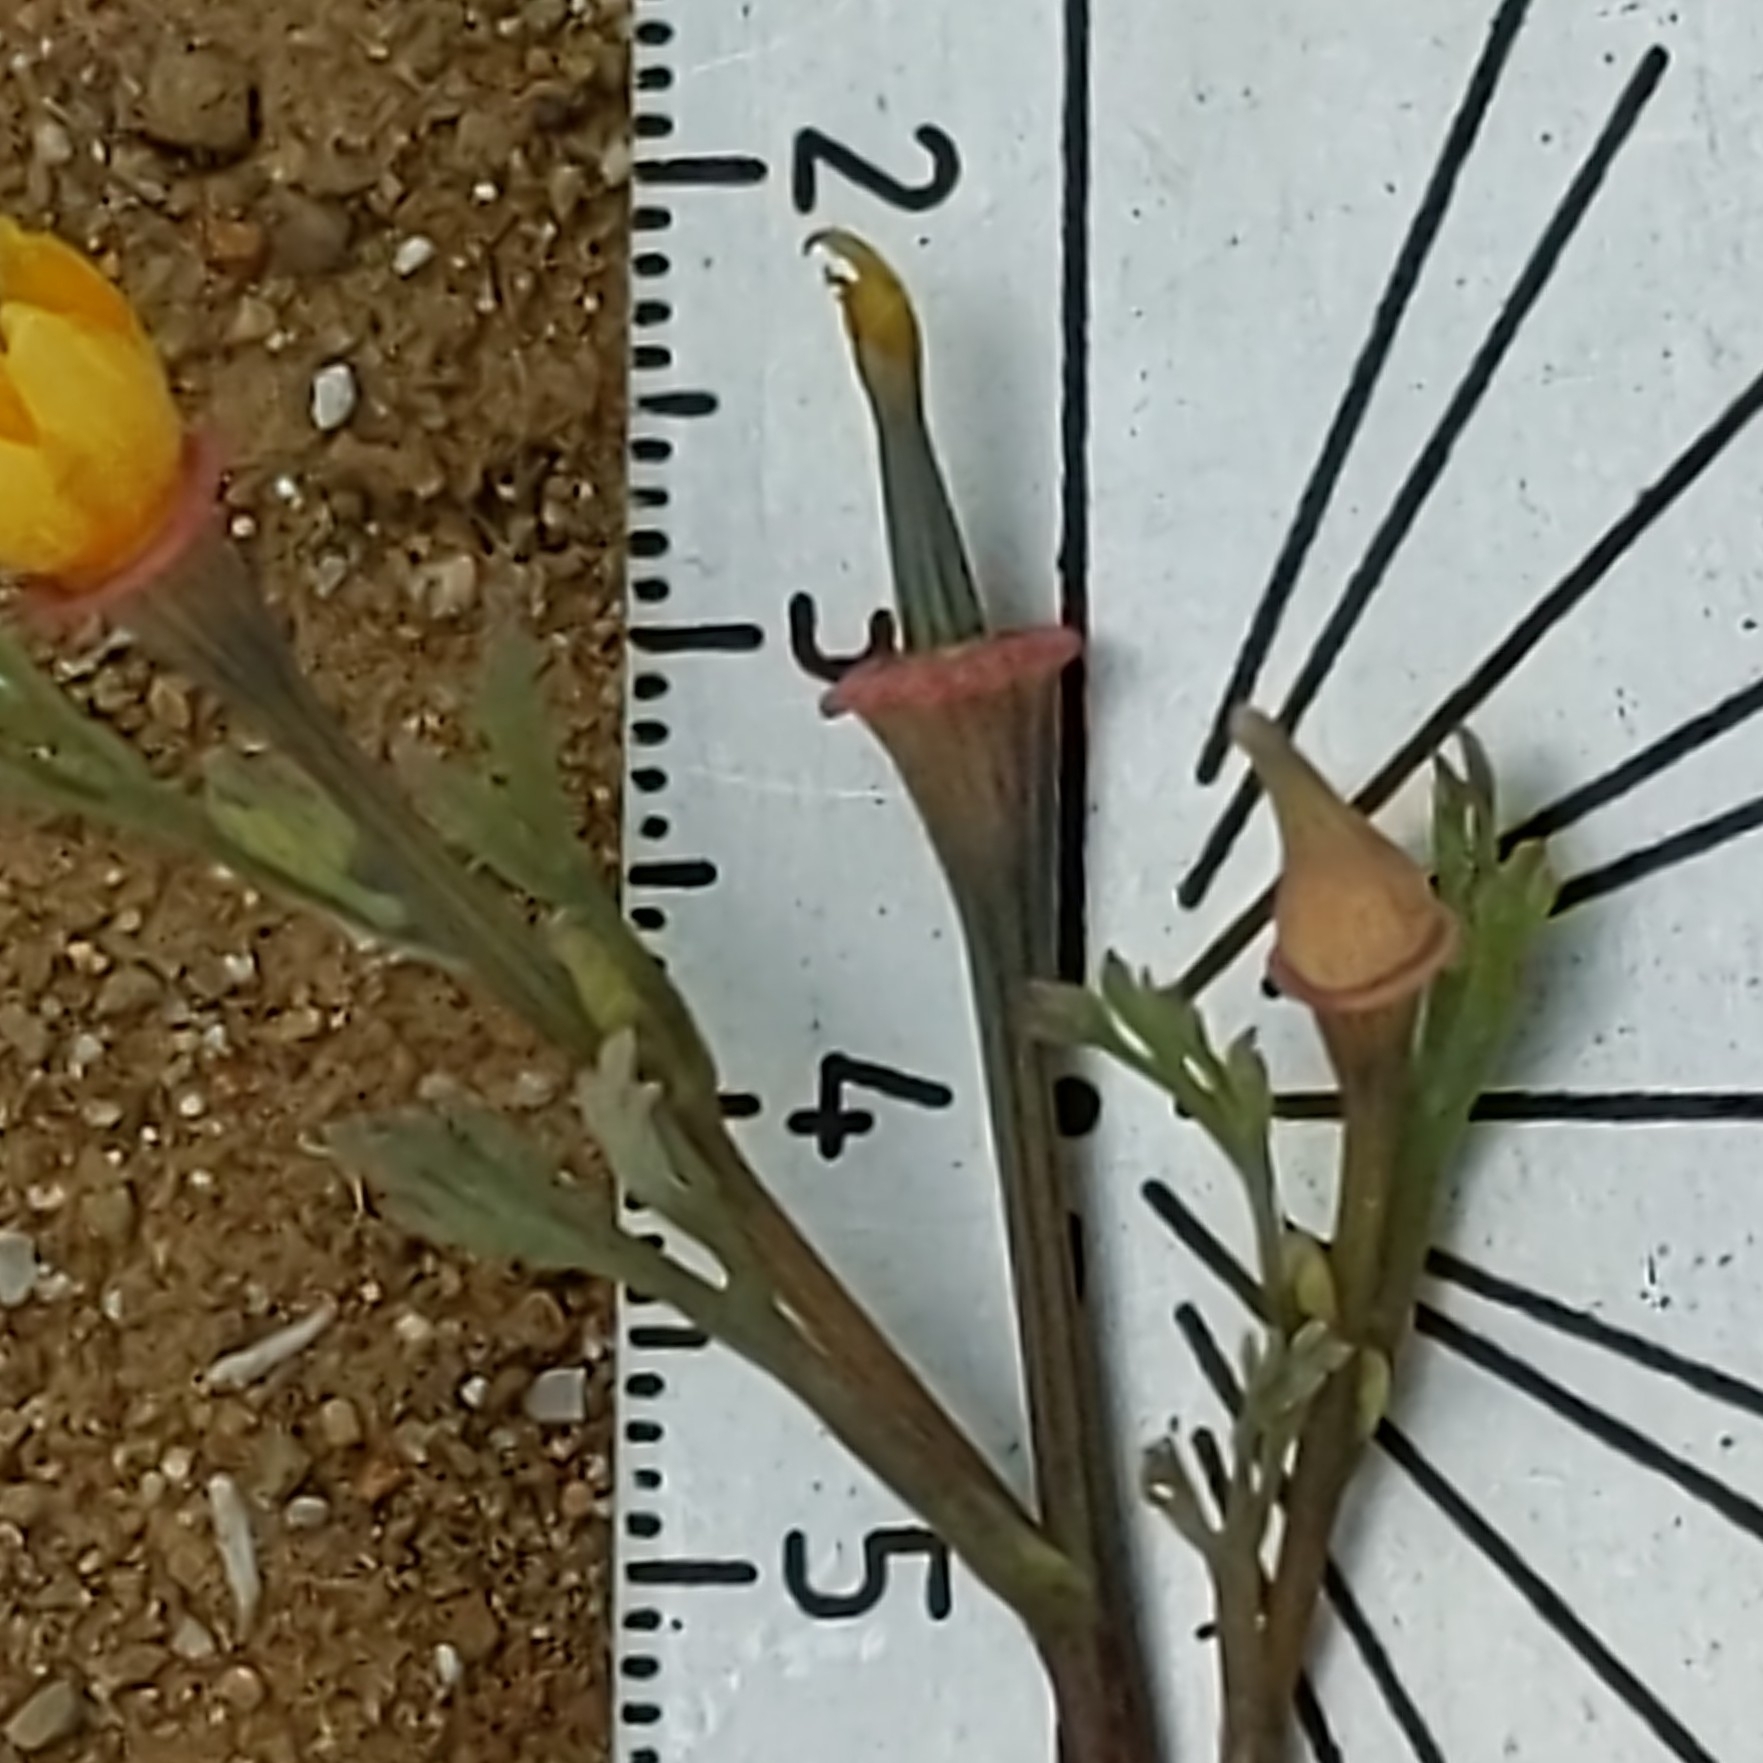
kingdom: Plantae
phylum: Tracheophyta
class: Magnoliopsida
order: Ranunculales
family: Papaveraceae
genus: Eschscholzia
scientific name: Eschscholzia californica
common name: California poppy
